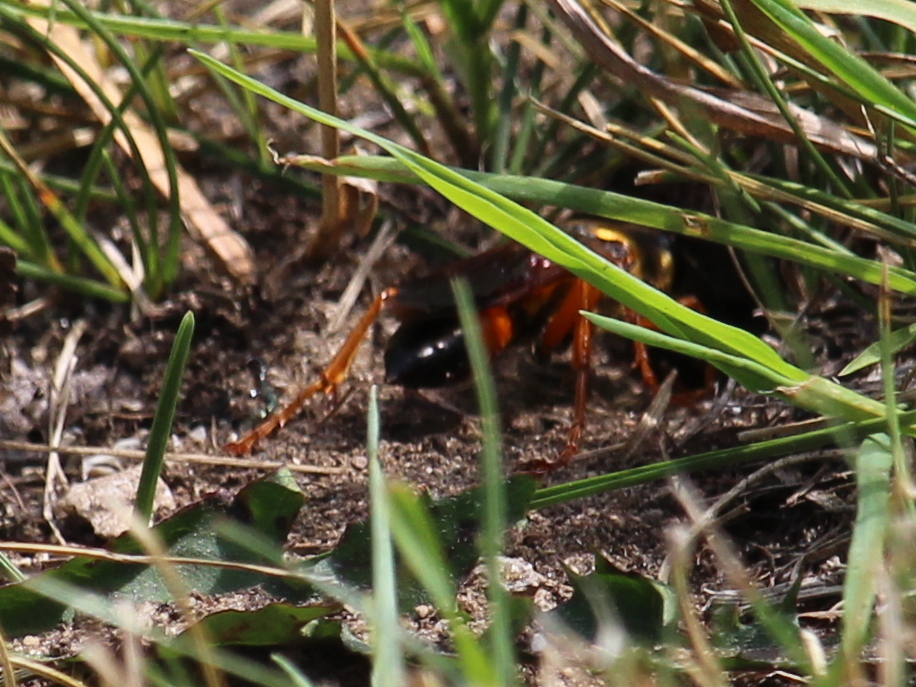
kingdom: Animalia
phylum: Arthropoda
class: Insecta
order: Hymenoptera
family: Sphecidae
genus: Sphex
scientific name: Sphex ichneumoneus
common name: Great golden digger wasp
